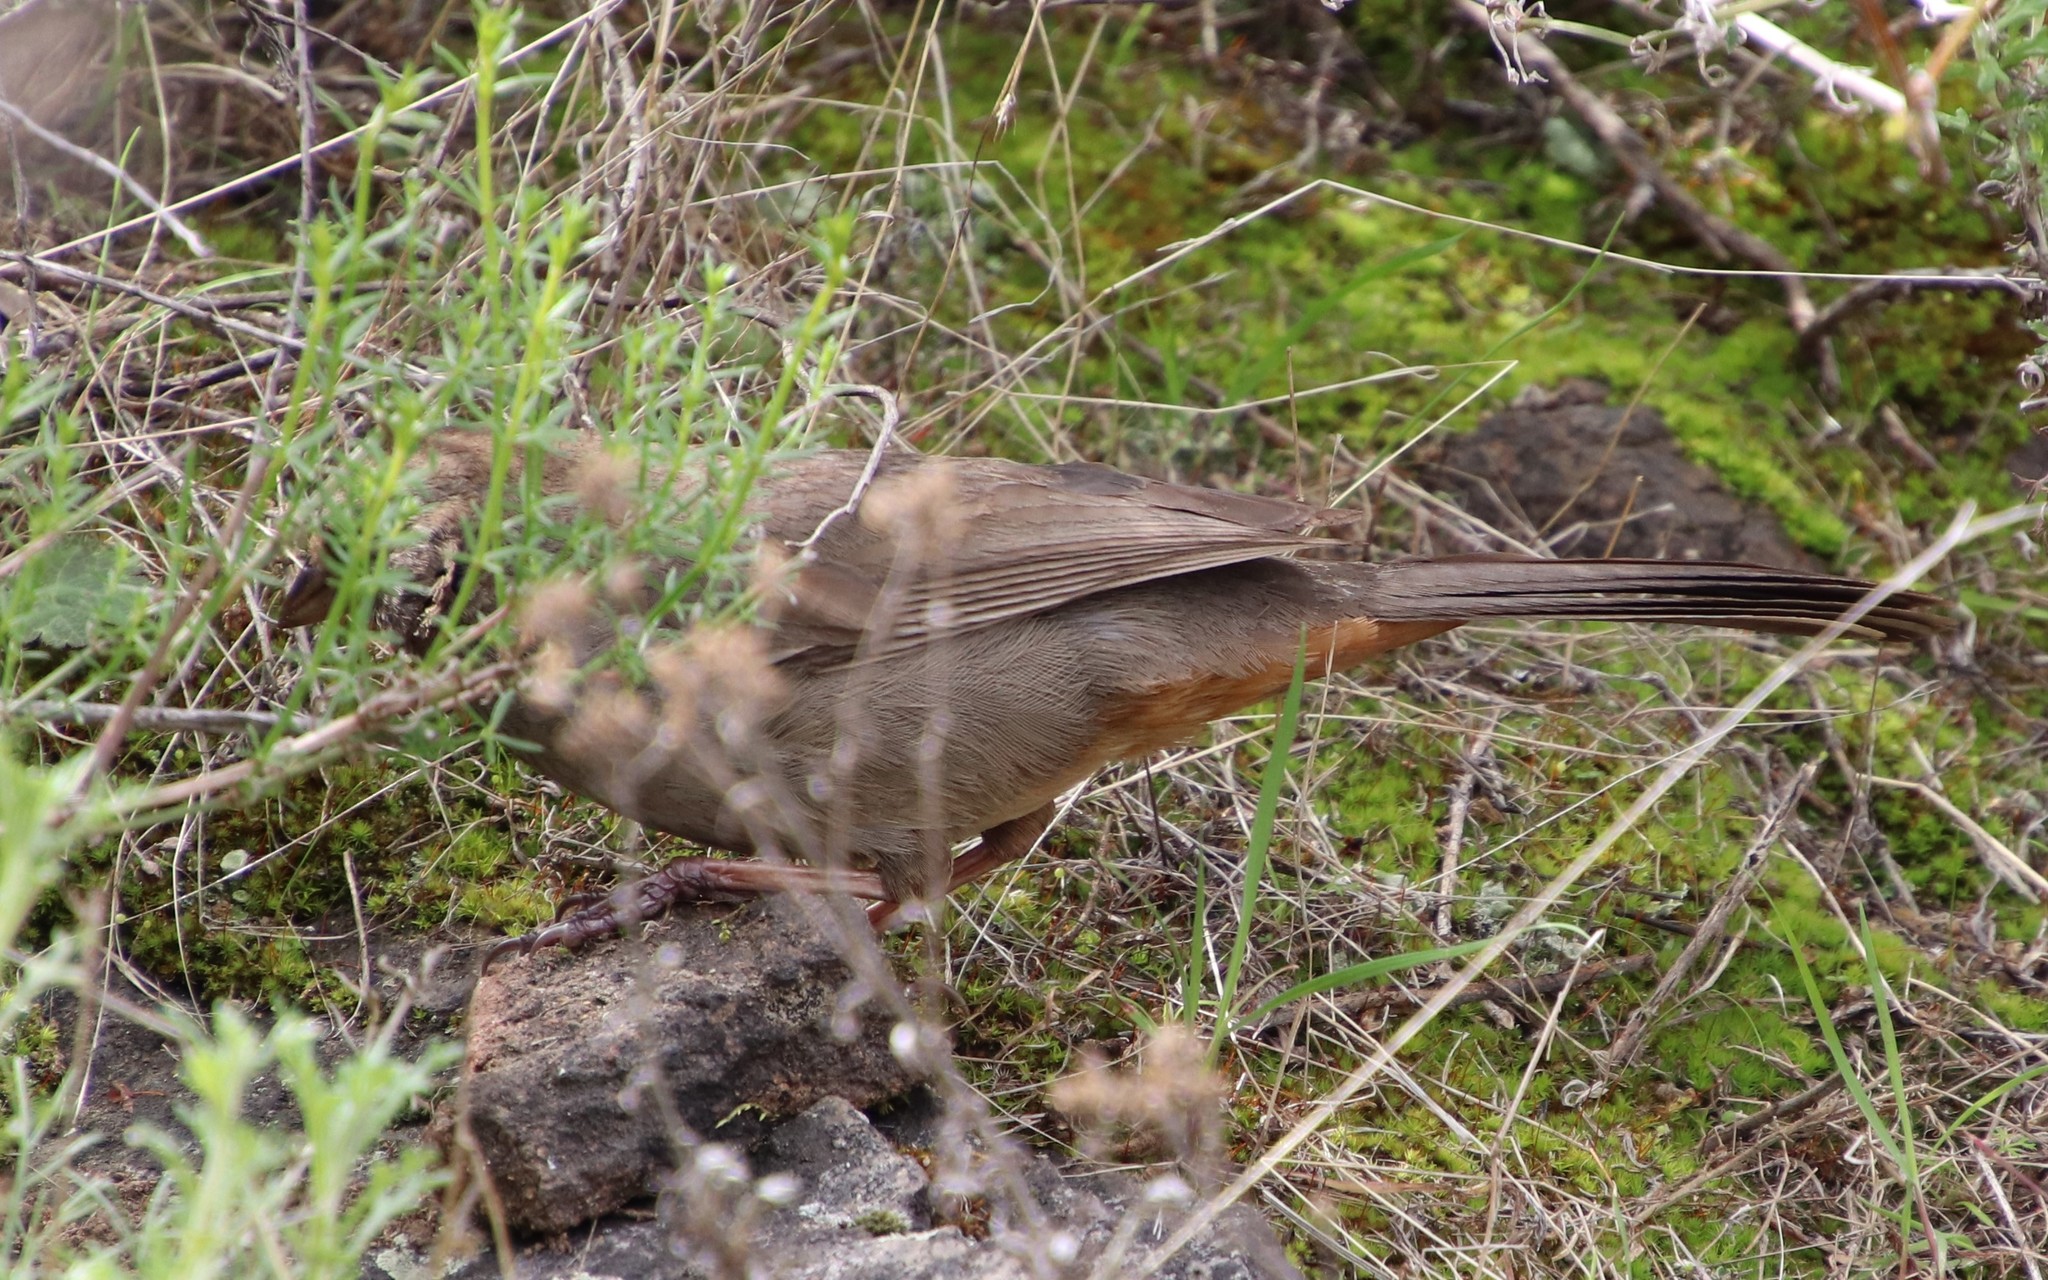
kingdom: Animalia
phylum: Chordata
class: Aves
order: Passeriformes
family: Passerellidae
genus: Melozone
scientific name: Melozone crissalis
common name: California towhee
